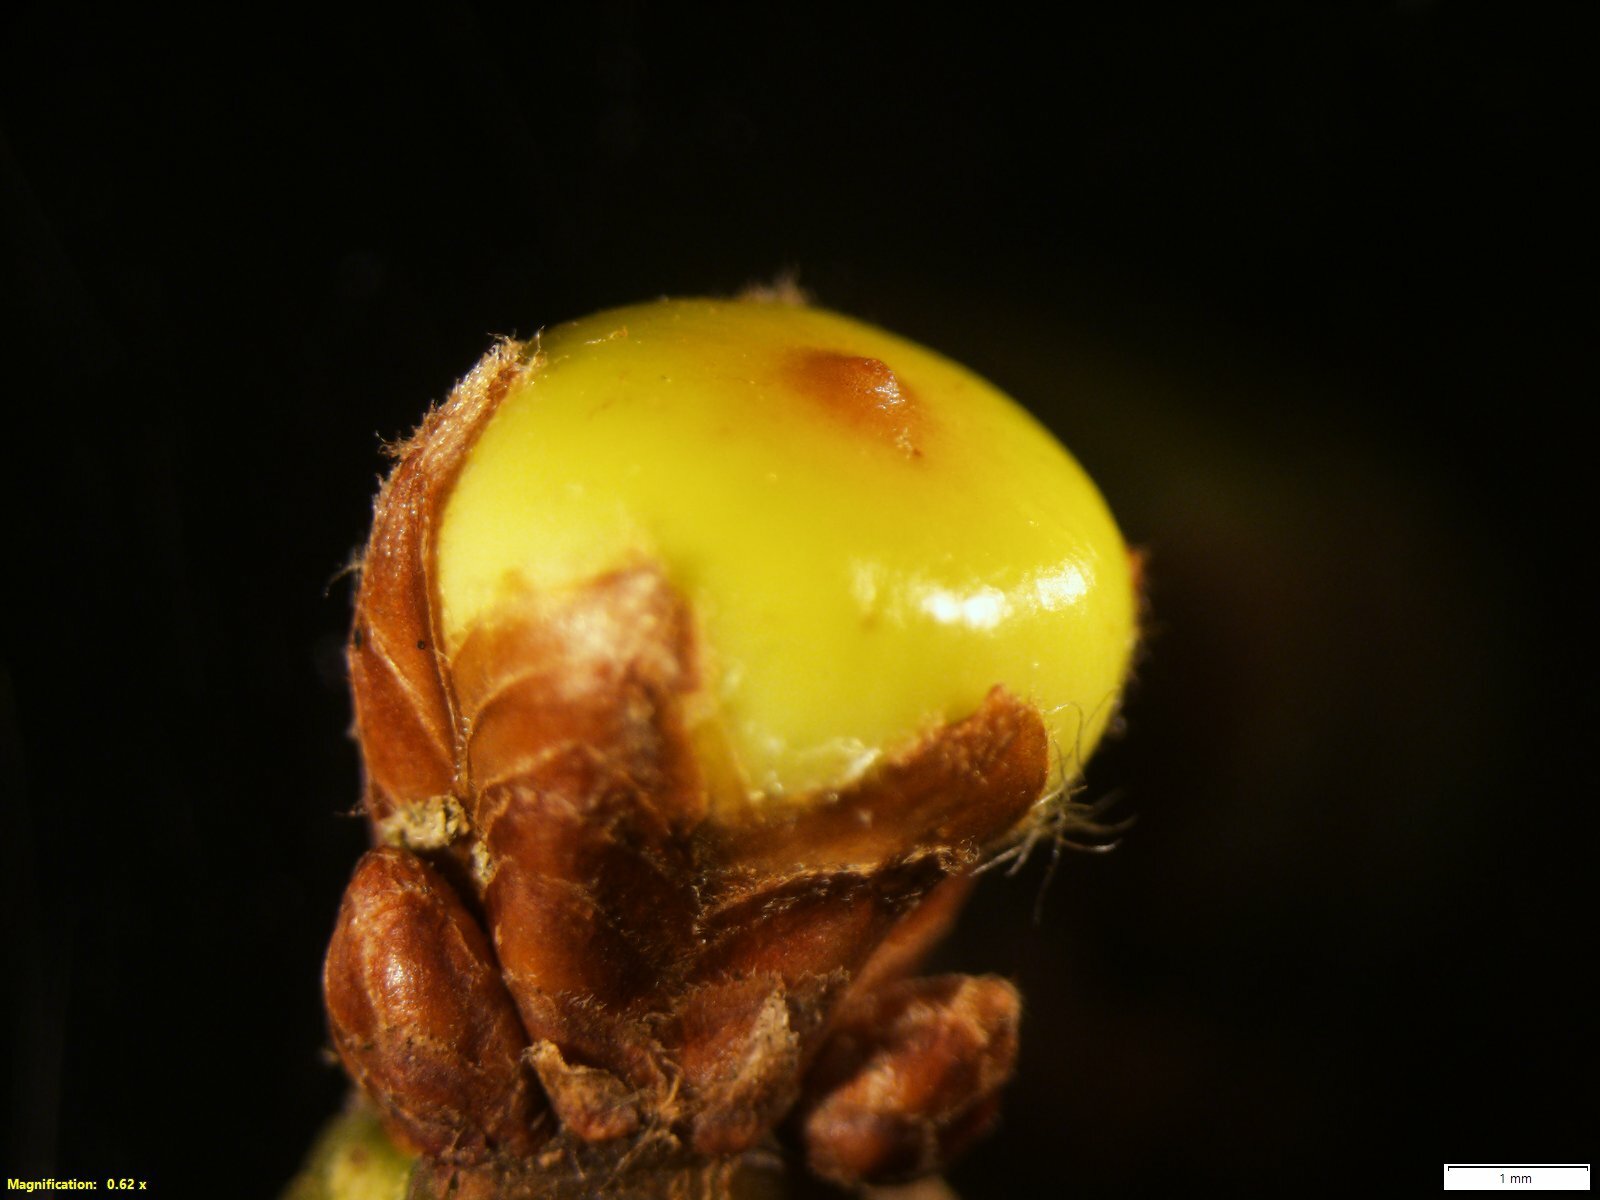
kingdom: Animalia
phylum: Arthropoda
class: Insecta
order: Hymenoptera
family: Cynipidae
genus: Callirhytis
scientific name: Callirhytis
